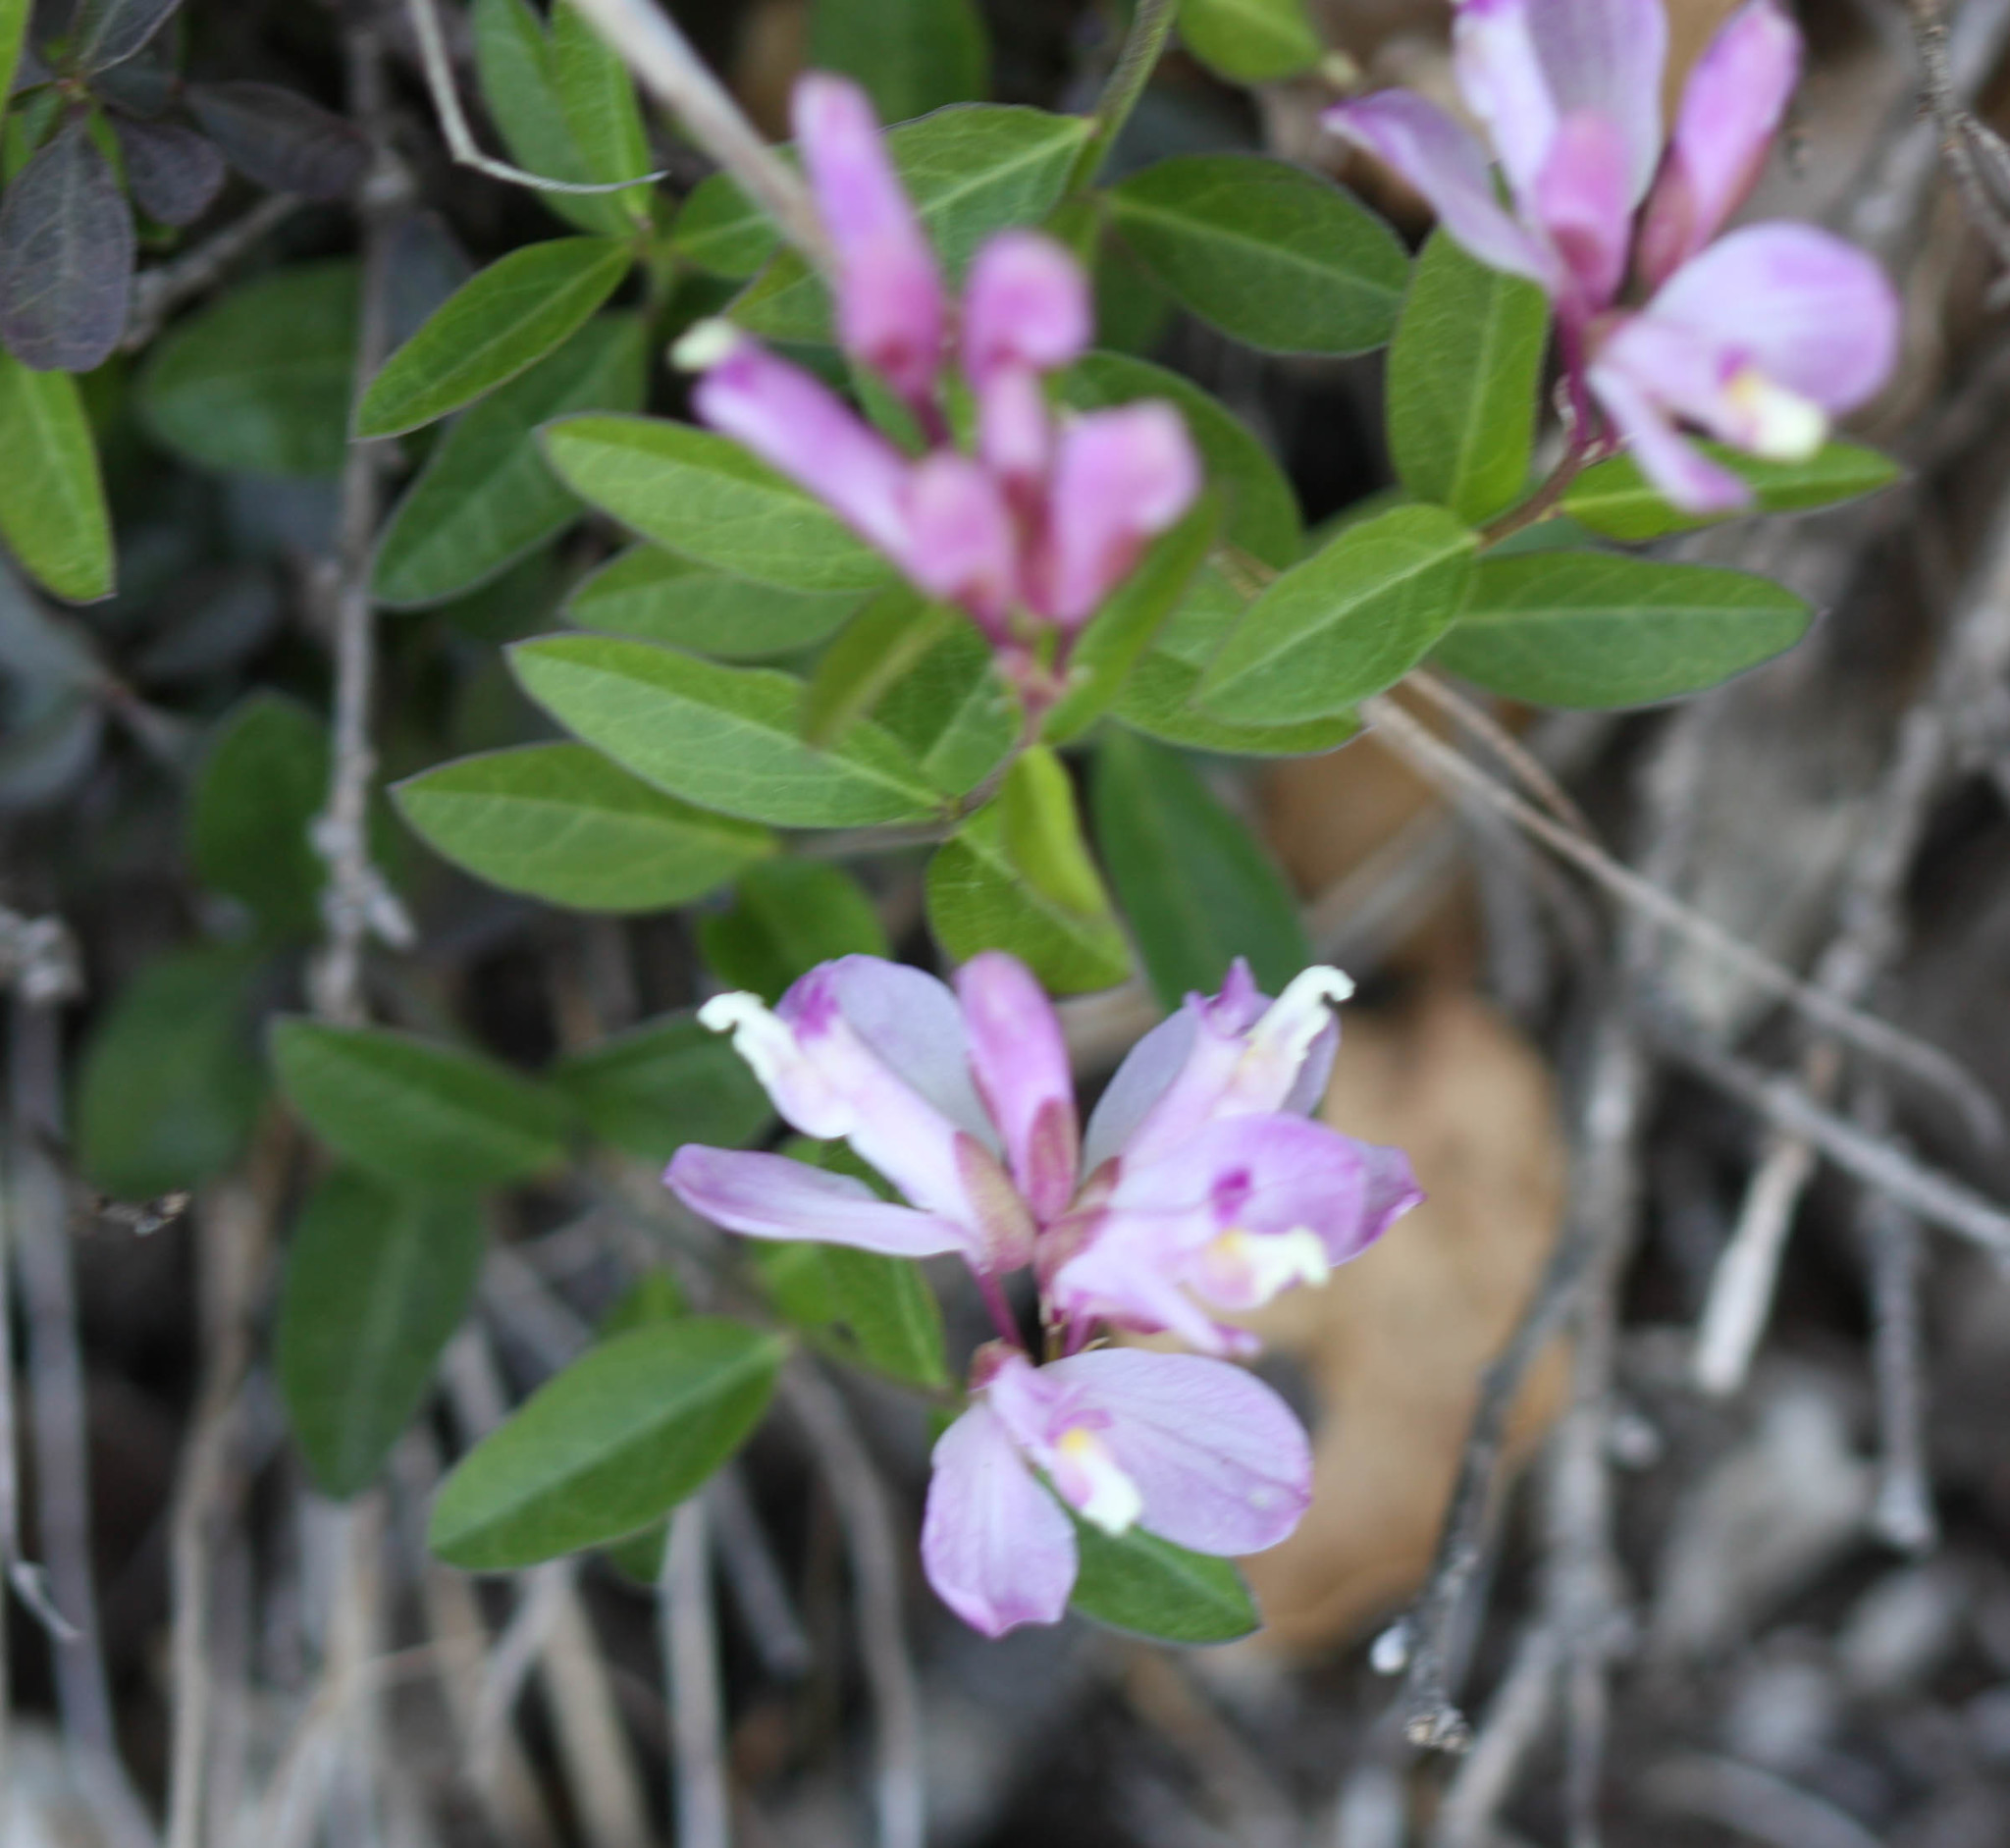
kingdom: Plantae
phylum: Tracheophyta
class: Magnoliopsida
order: Fabales
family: Polygalaceae
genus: Rhinotropis
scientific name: Rhinotropis californica
